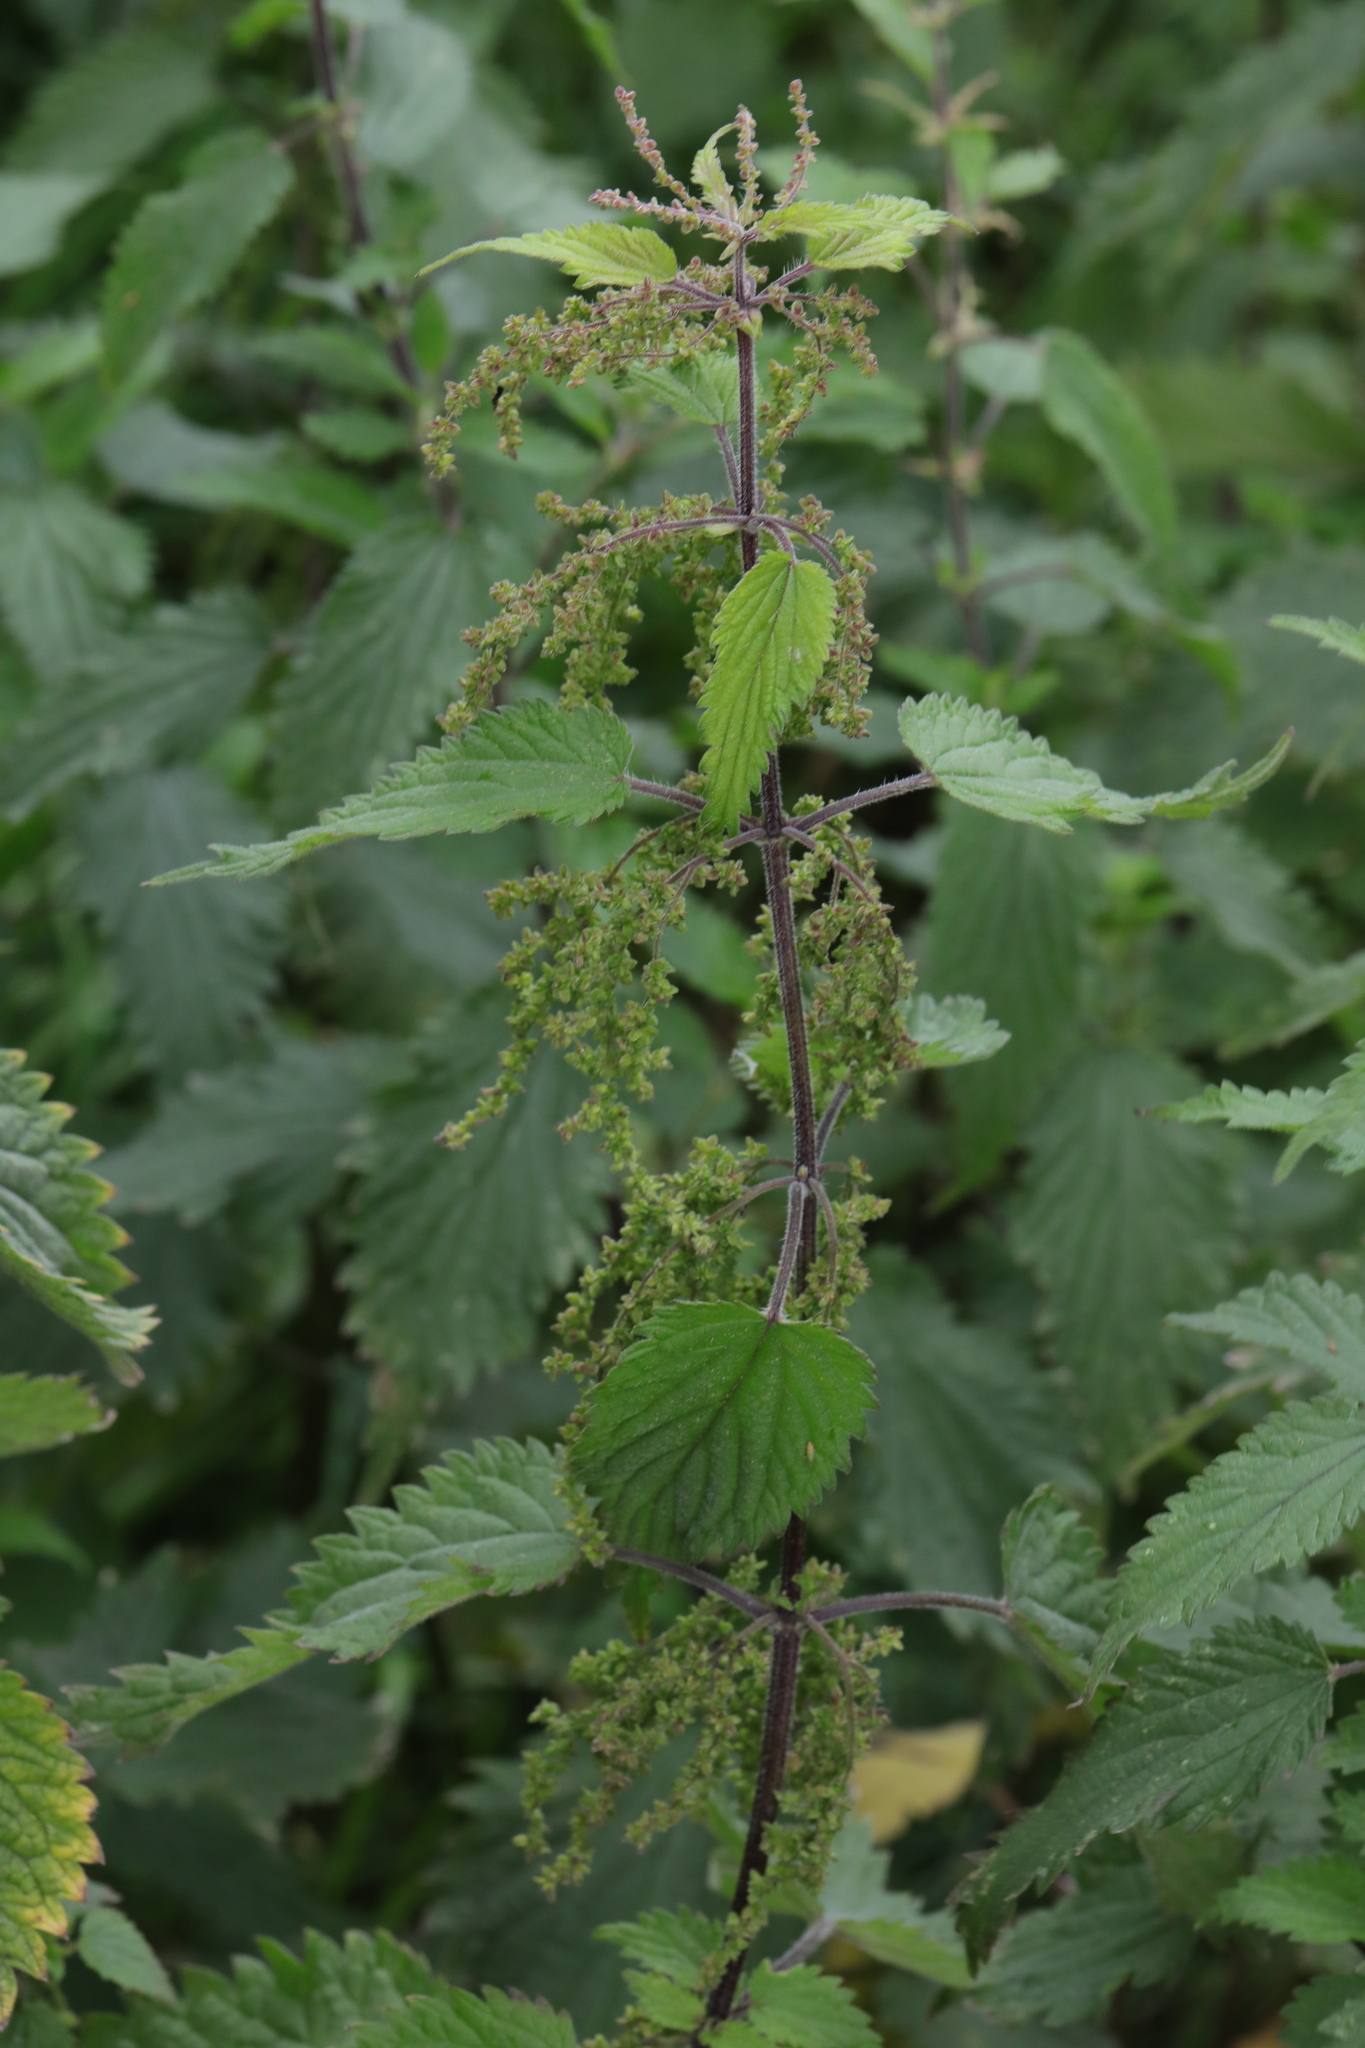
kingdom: Plantae
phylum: Tracheophyta
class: Magnoliopsida
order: Rosales
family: Urticaceae
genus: Urtica
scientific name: Urtica dioica
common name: Common nettle
